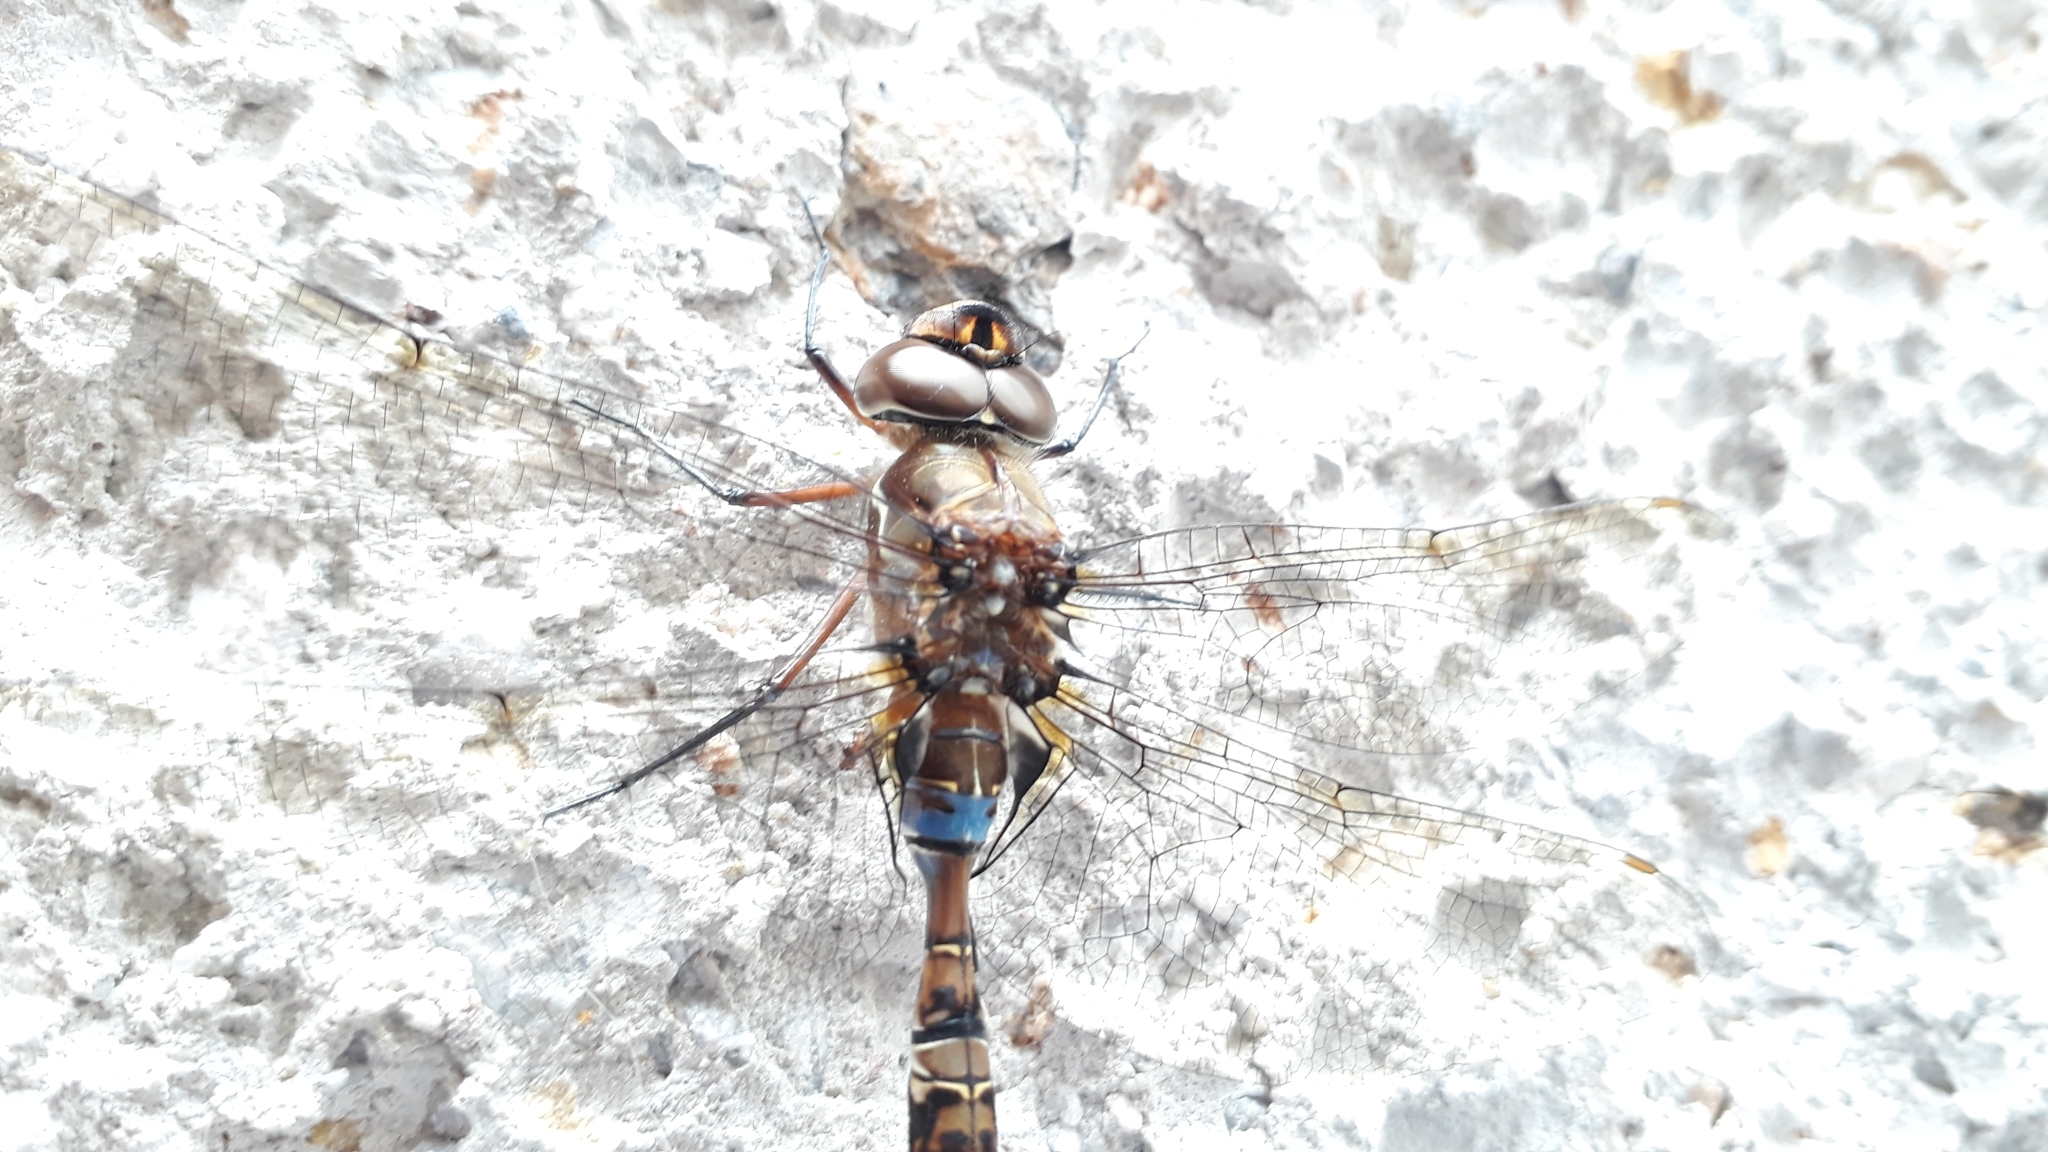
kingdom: Animalia
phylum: Arthropoda
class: Insecta
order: Odonata
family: Aeshnidae
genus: Rhionaeschna
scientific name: Rhionaeschna marchali
